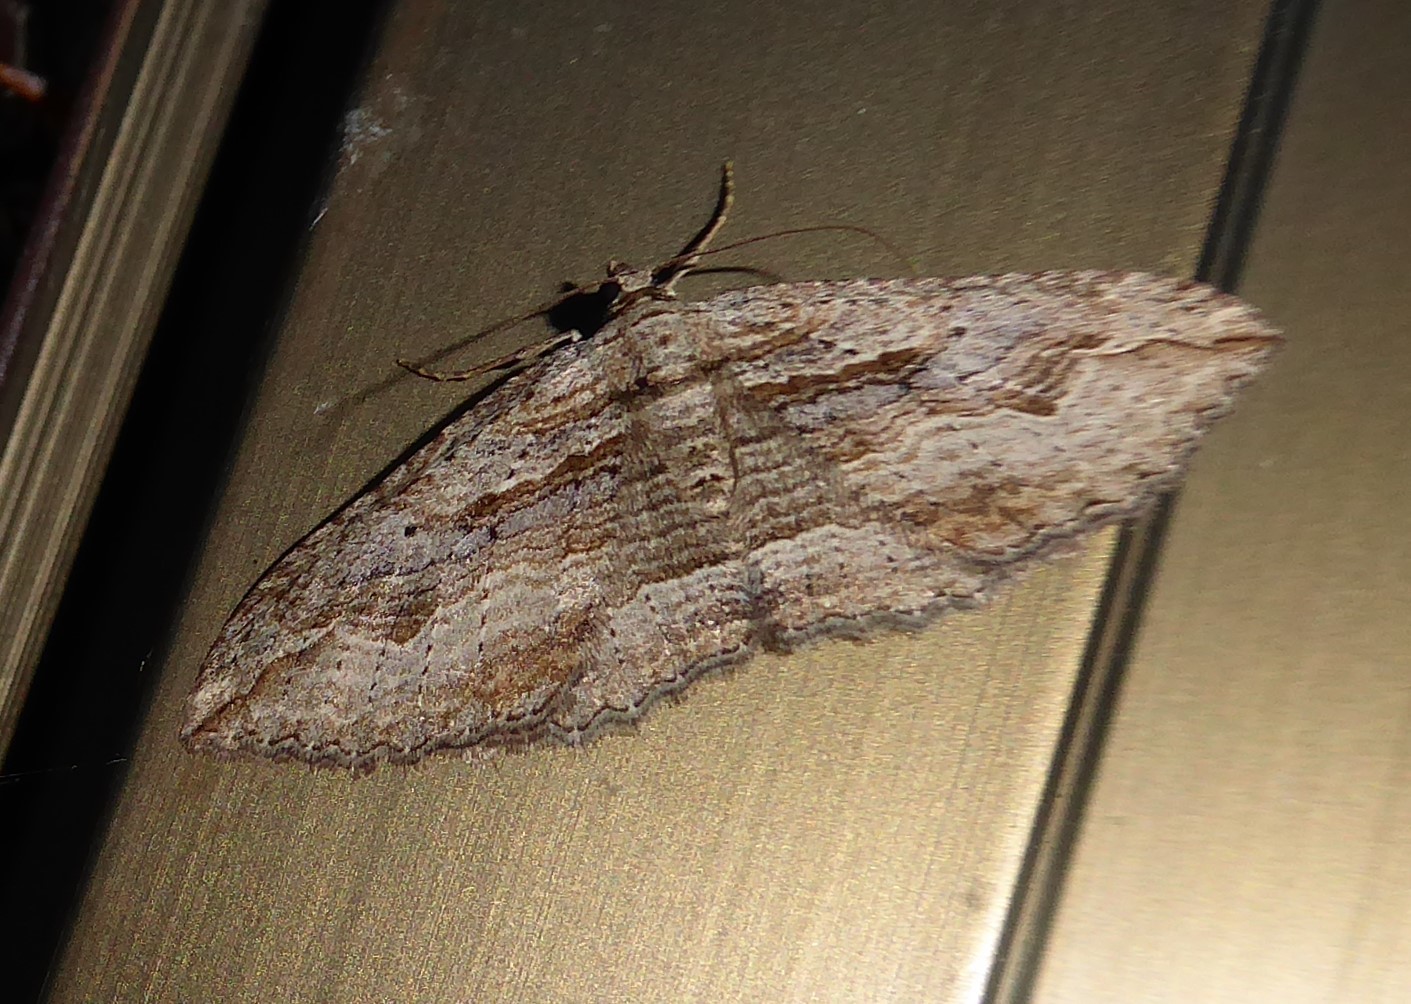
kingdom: Animalia
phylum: Arthropoda
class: Insecta
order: Lepidoptera
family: Geometridae
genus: Austrocidaria
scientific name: Austrocidaria gobiata
